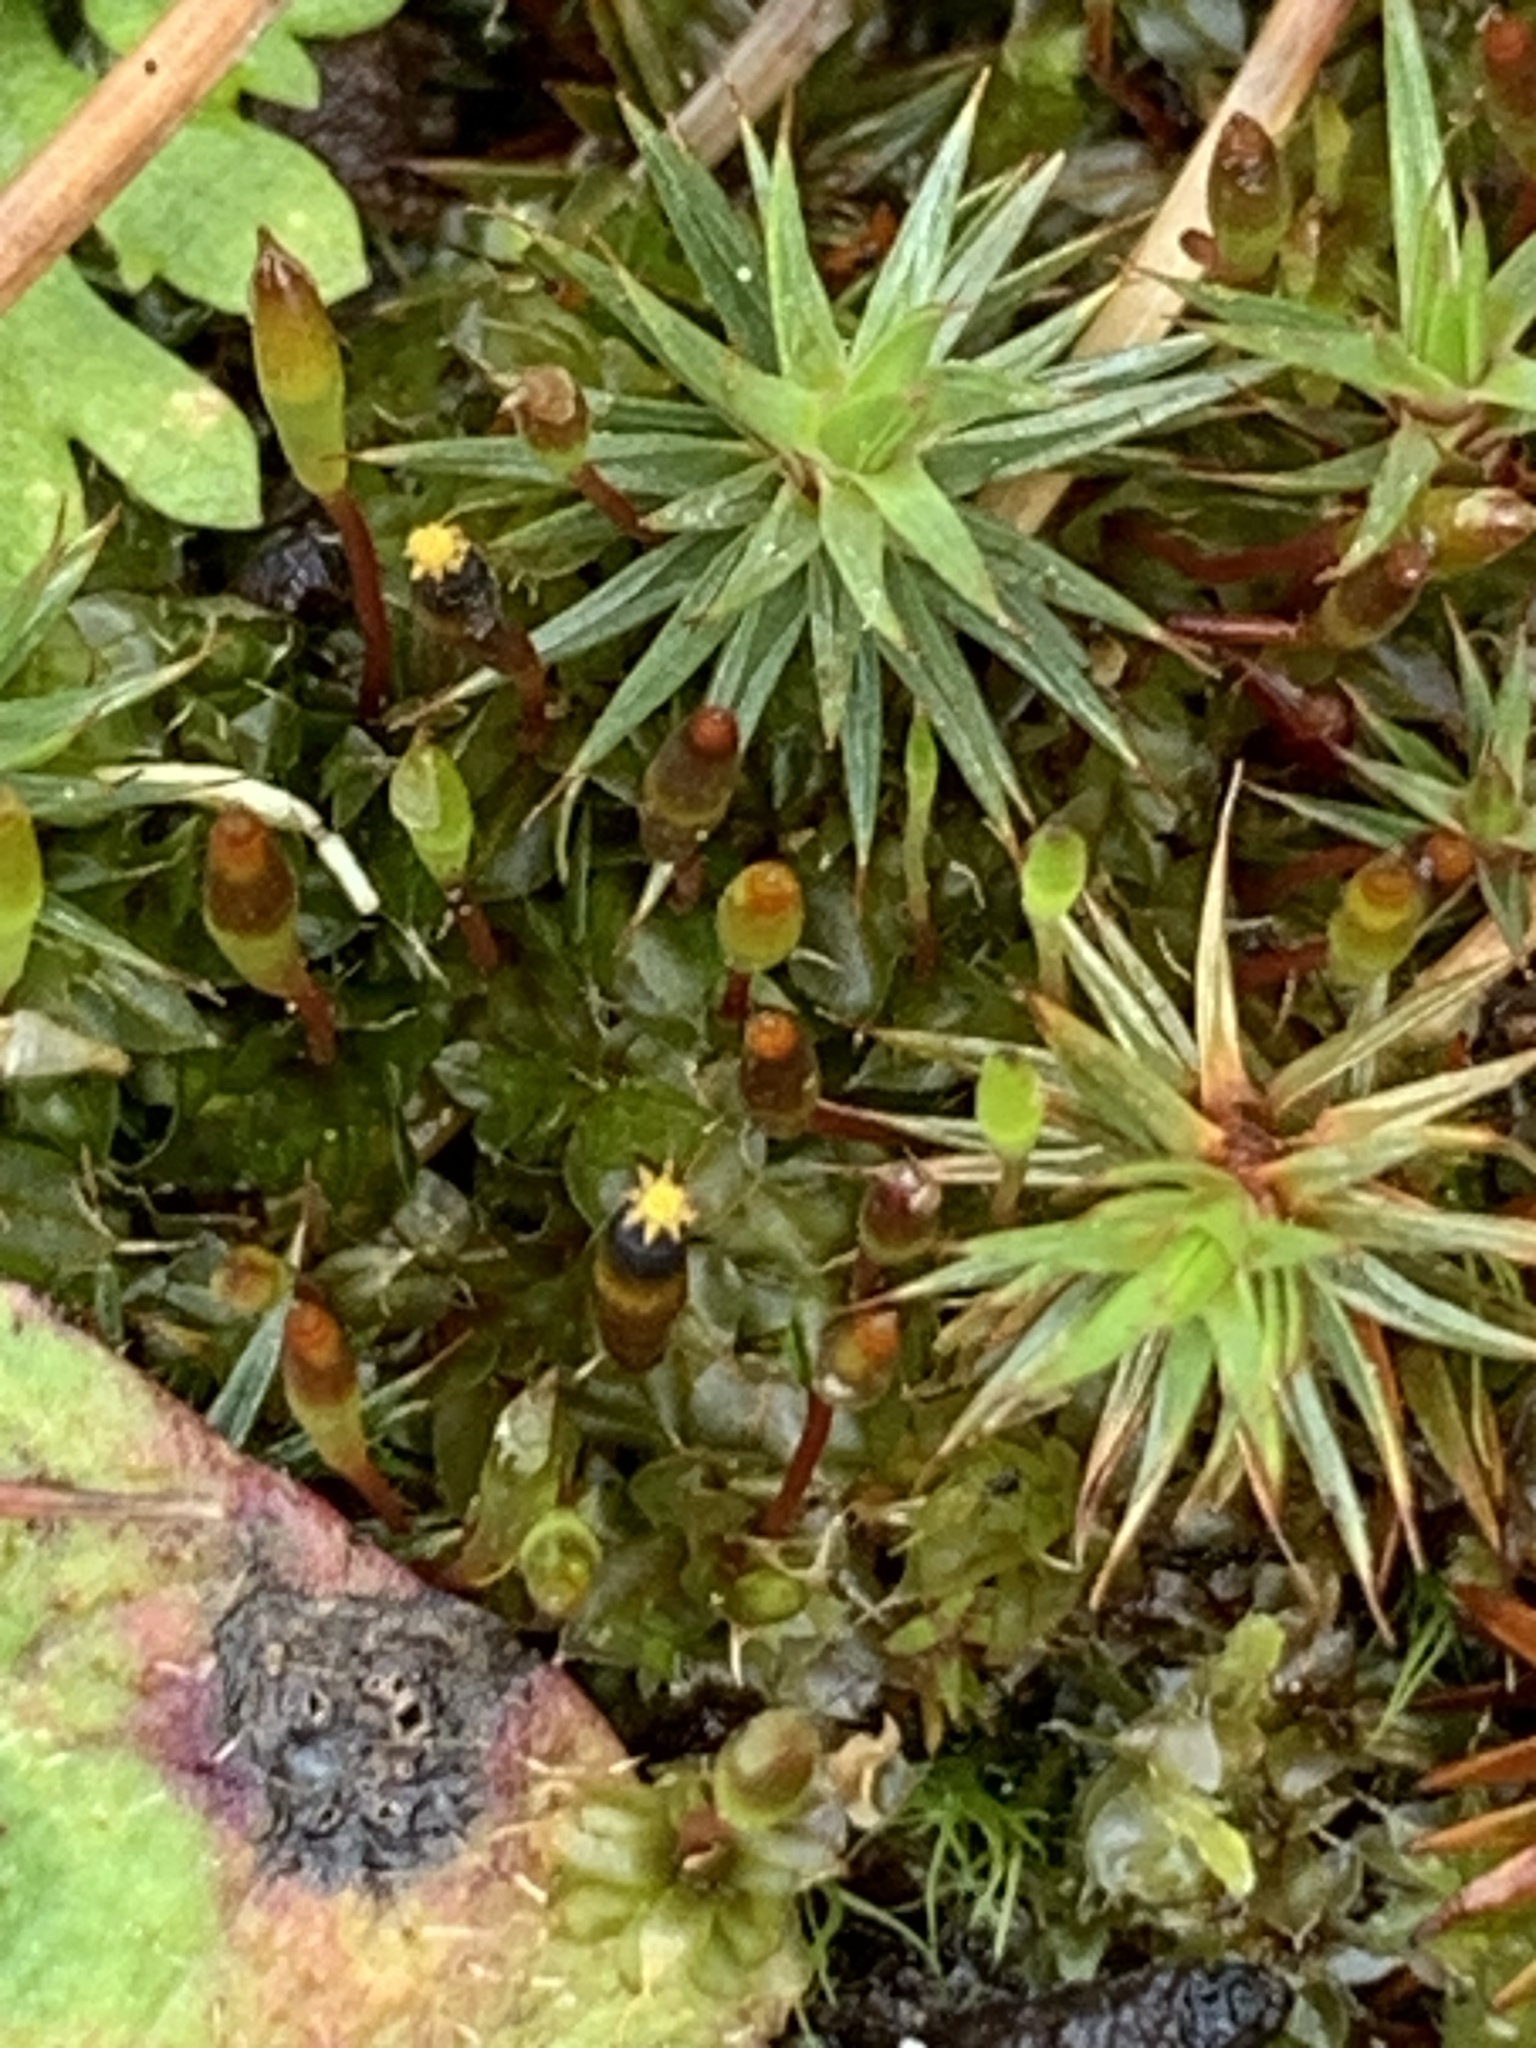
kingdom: Plantae
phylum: Bryophyta
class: Bryopsida
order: Splachnales
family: Splachnaceae
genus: Tayloria
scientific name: Tayloria octoblephara
